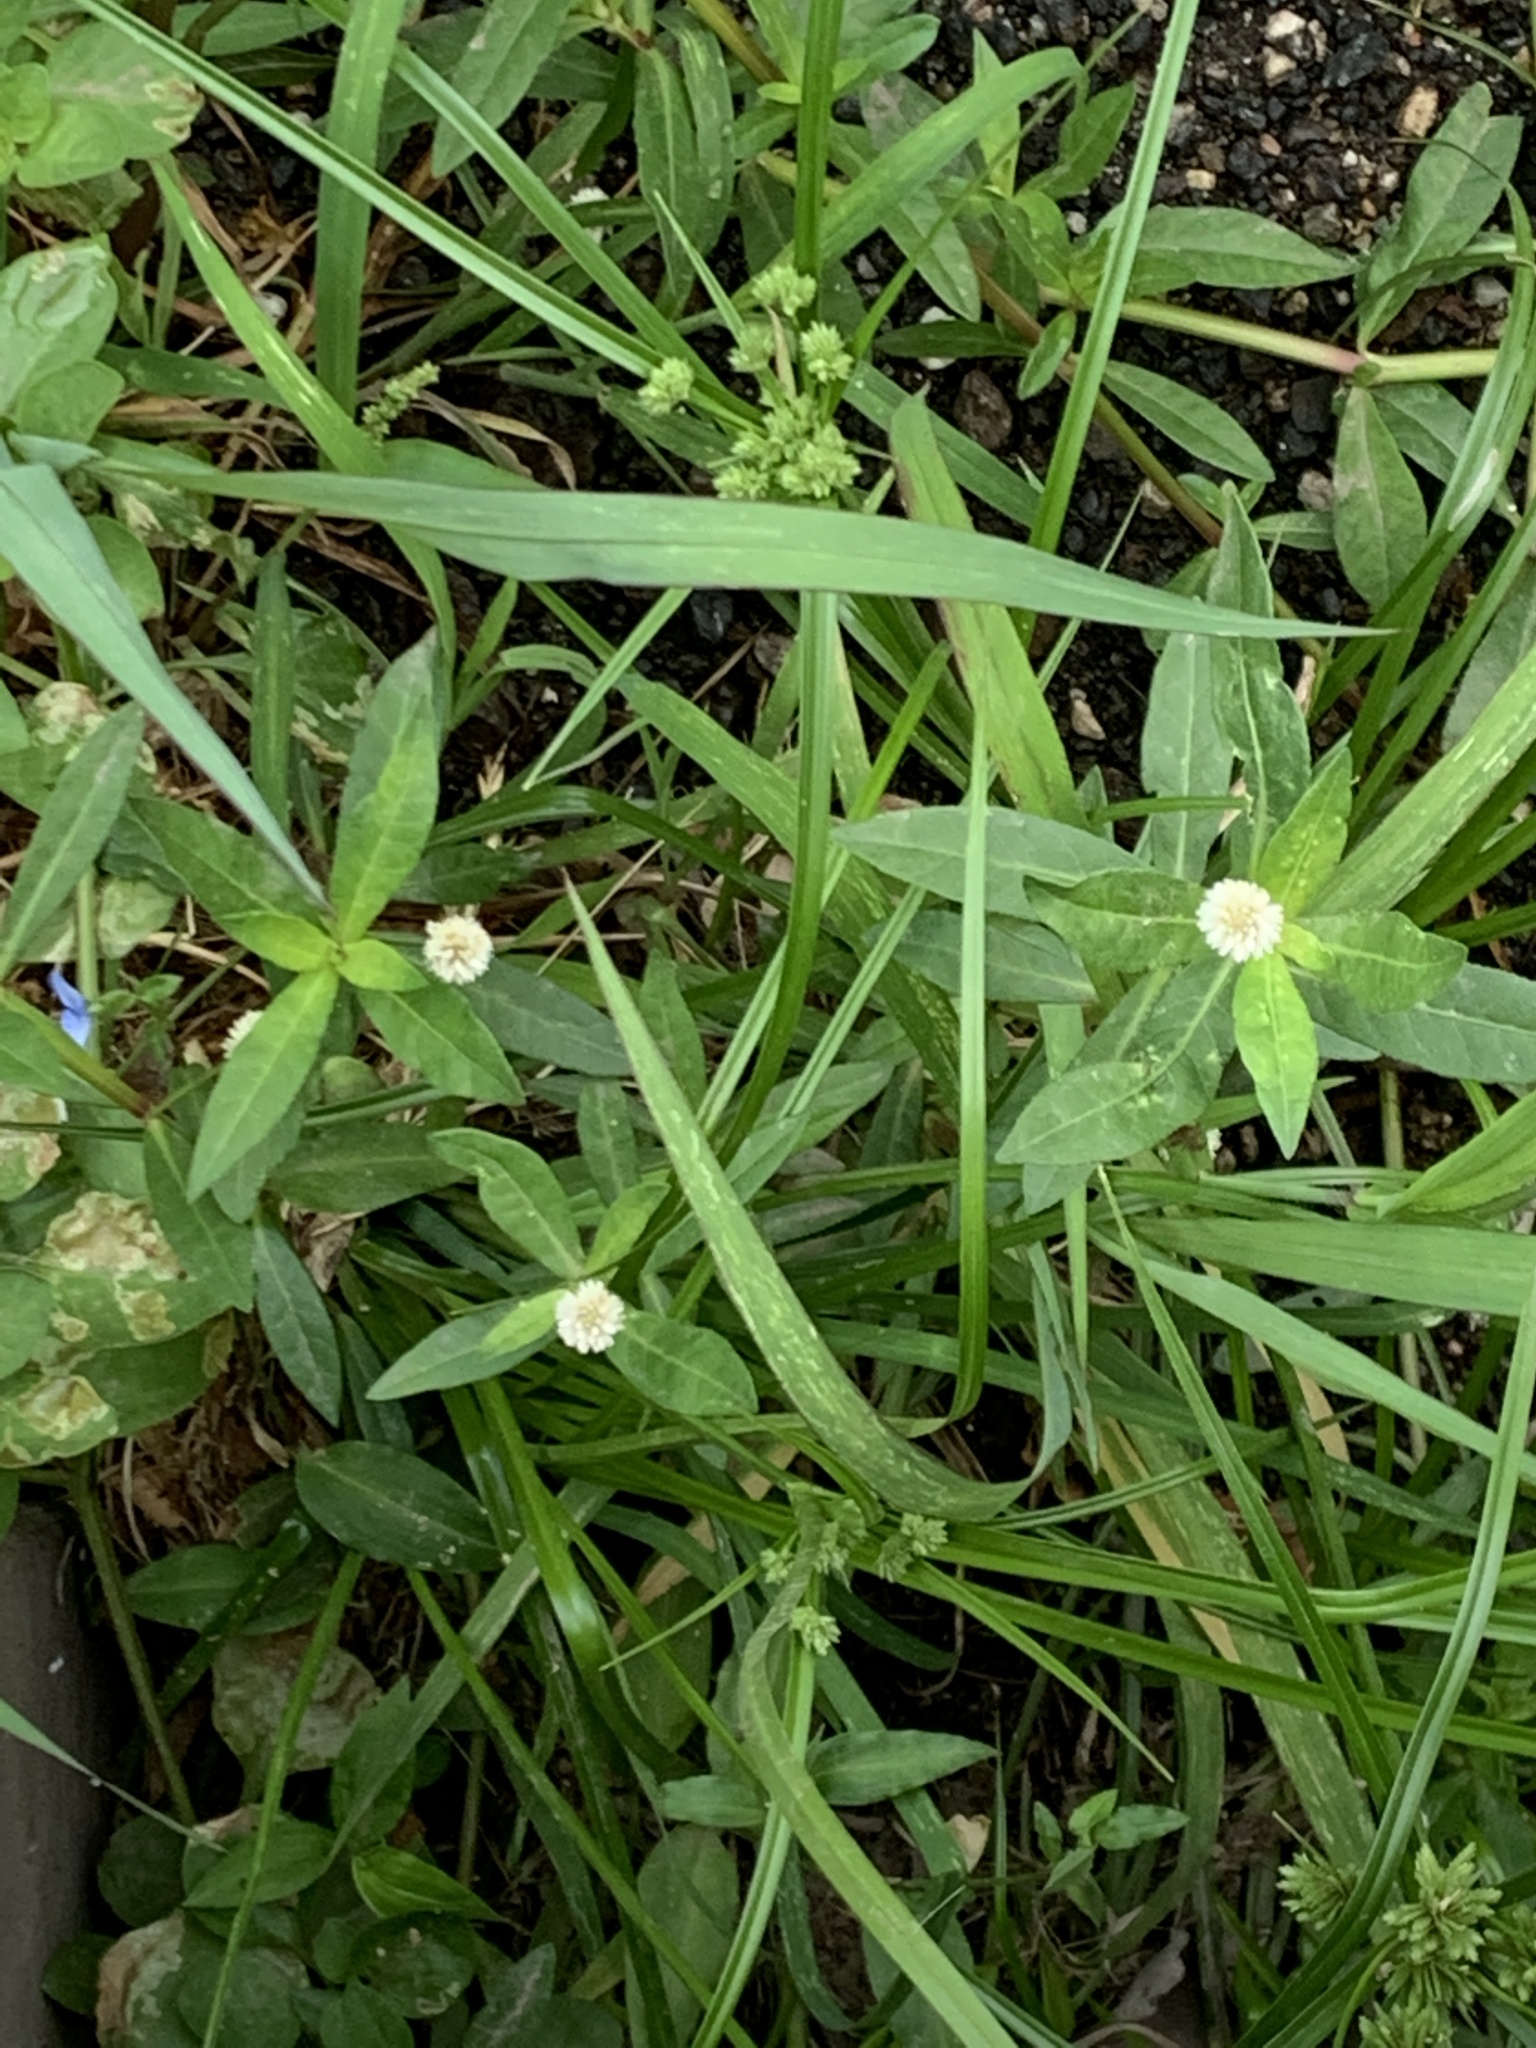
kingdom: Plantae
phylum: Tracheophyta
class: Magnoliopsida
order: Caryophyllales
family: Amaranthaceae
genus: Alternanthera
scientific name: Alternanthera philoxeroides
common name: Alligatorweed
